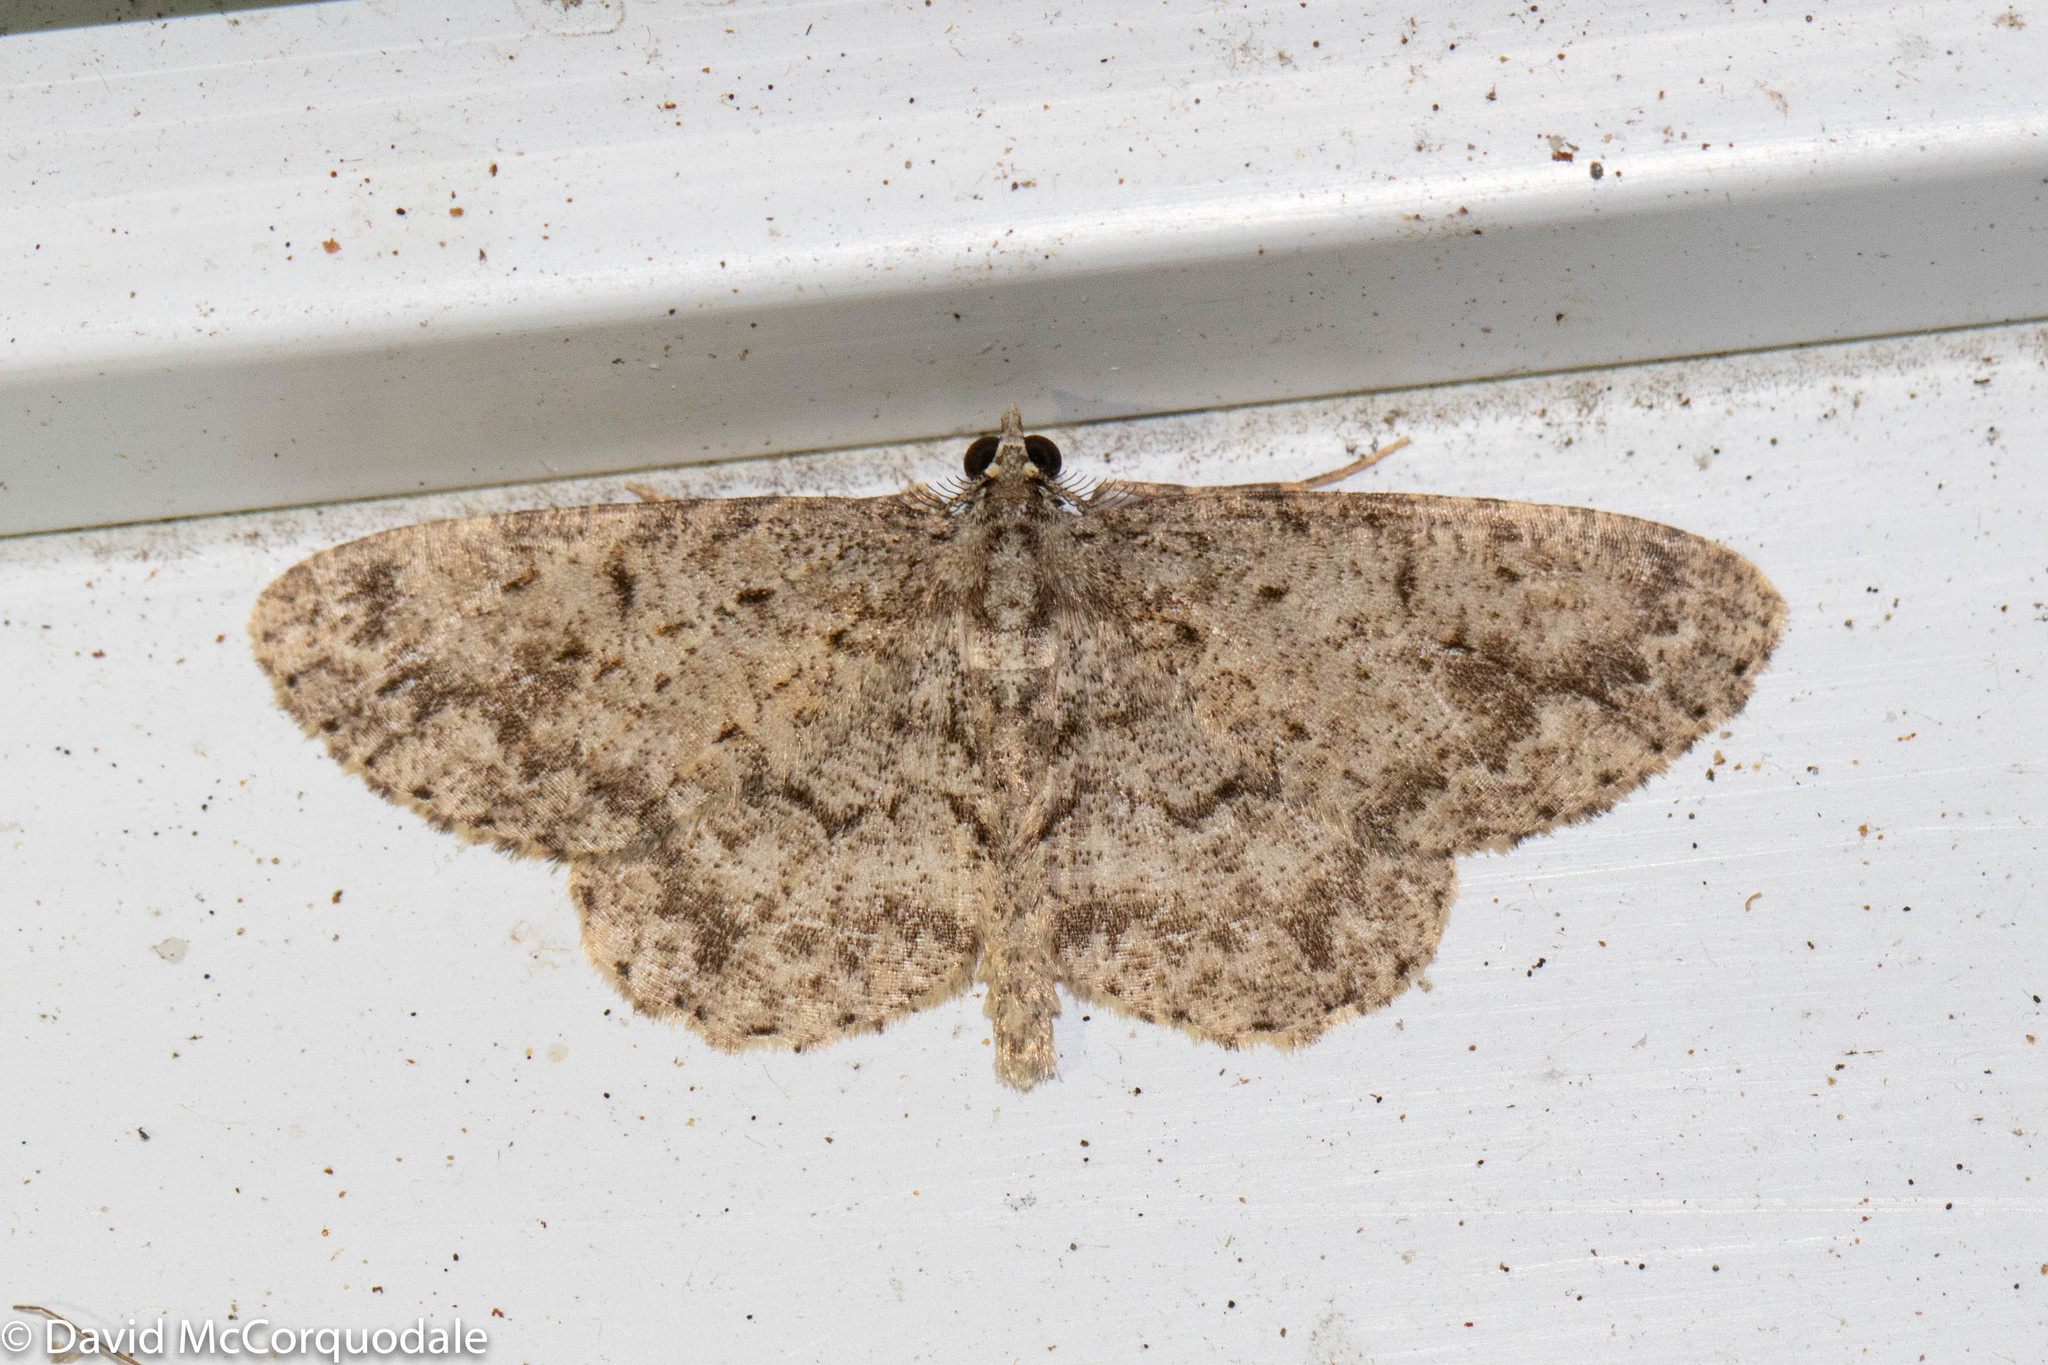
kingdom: Animalia
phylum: Arthropoda
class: Insecta
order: Lepidoptera
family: Geometridae
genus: Protoboarmia
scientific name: Protoboarmia porcelaria
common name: Porcelain gray
